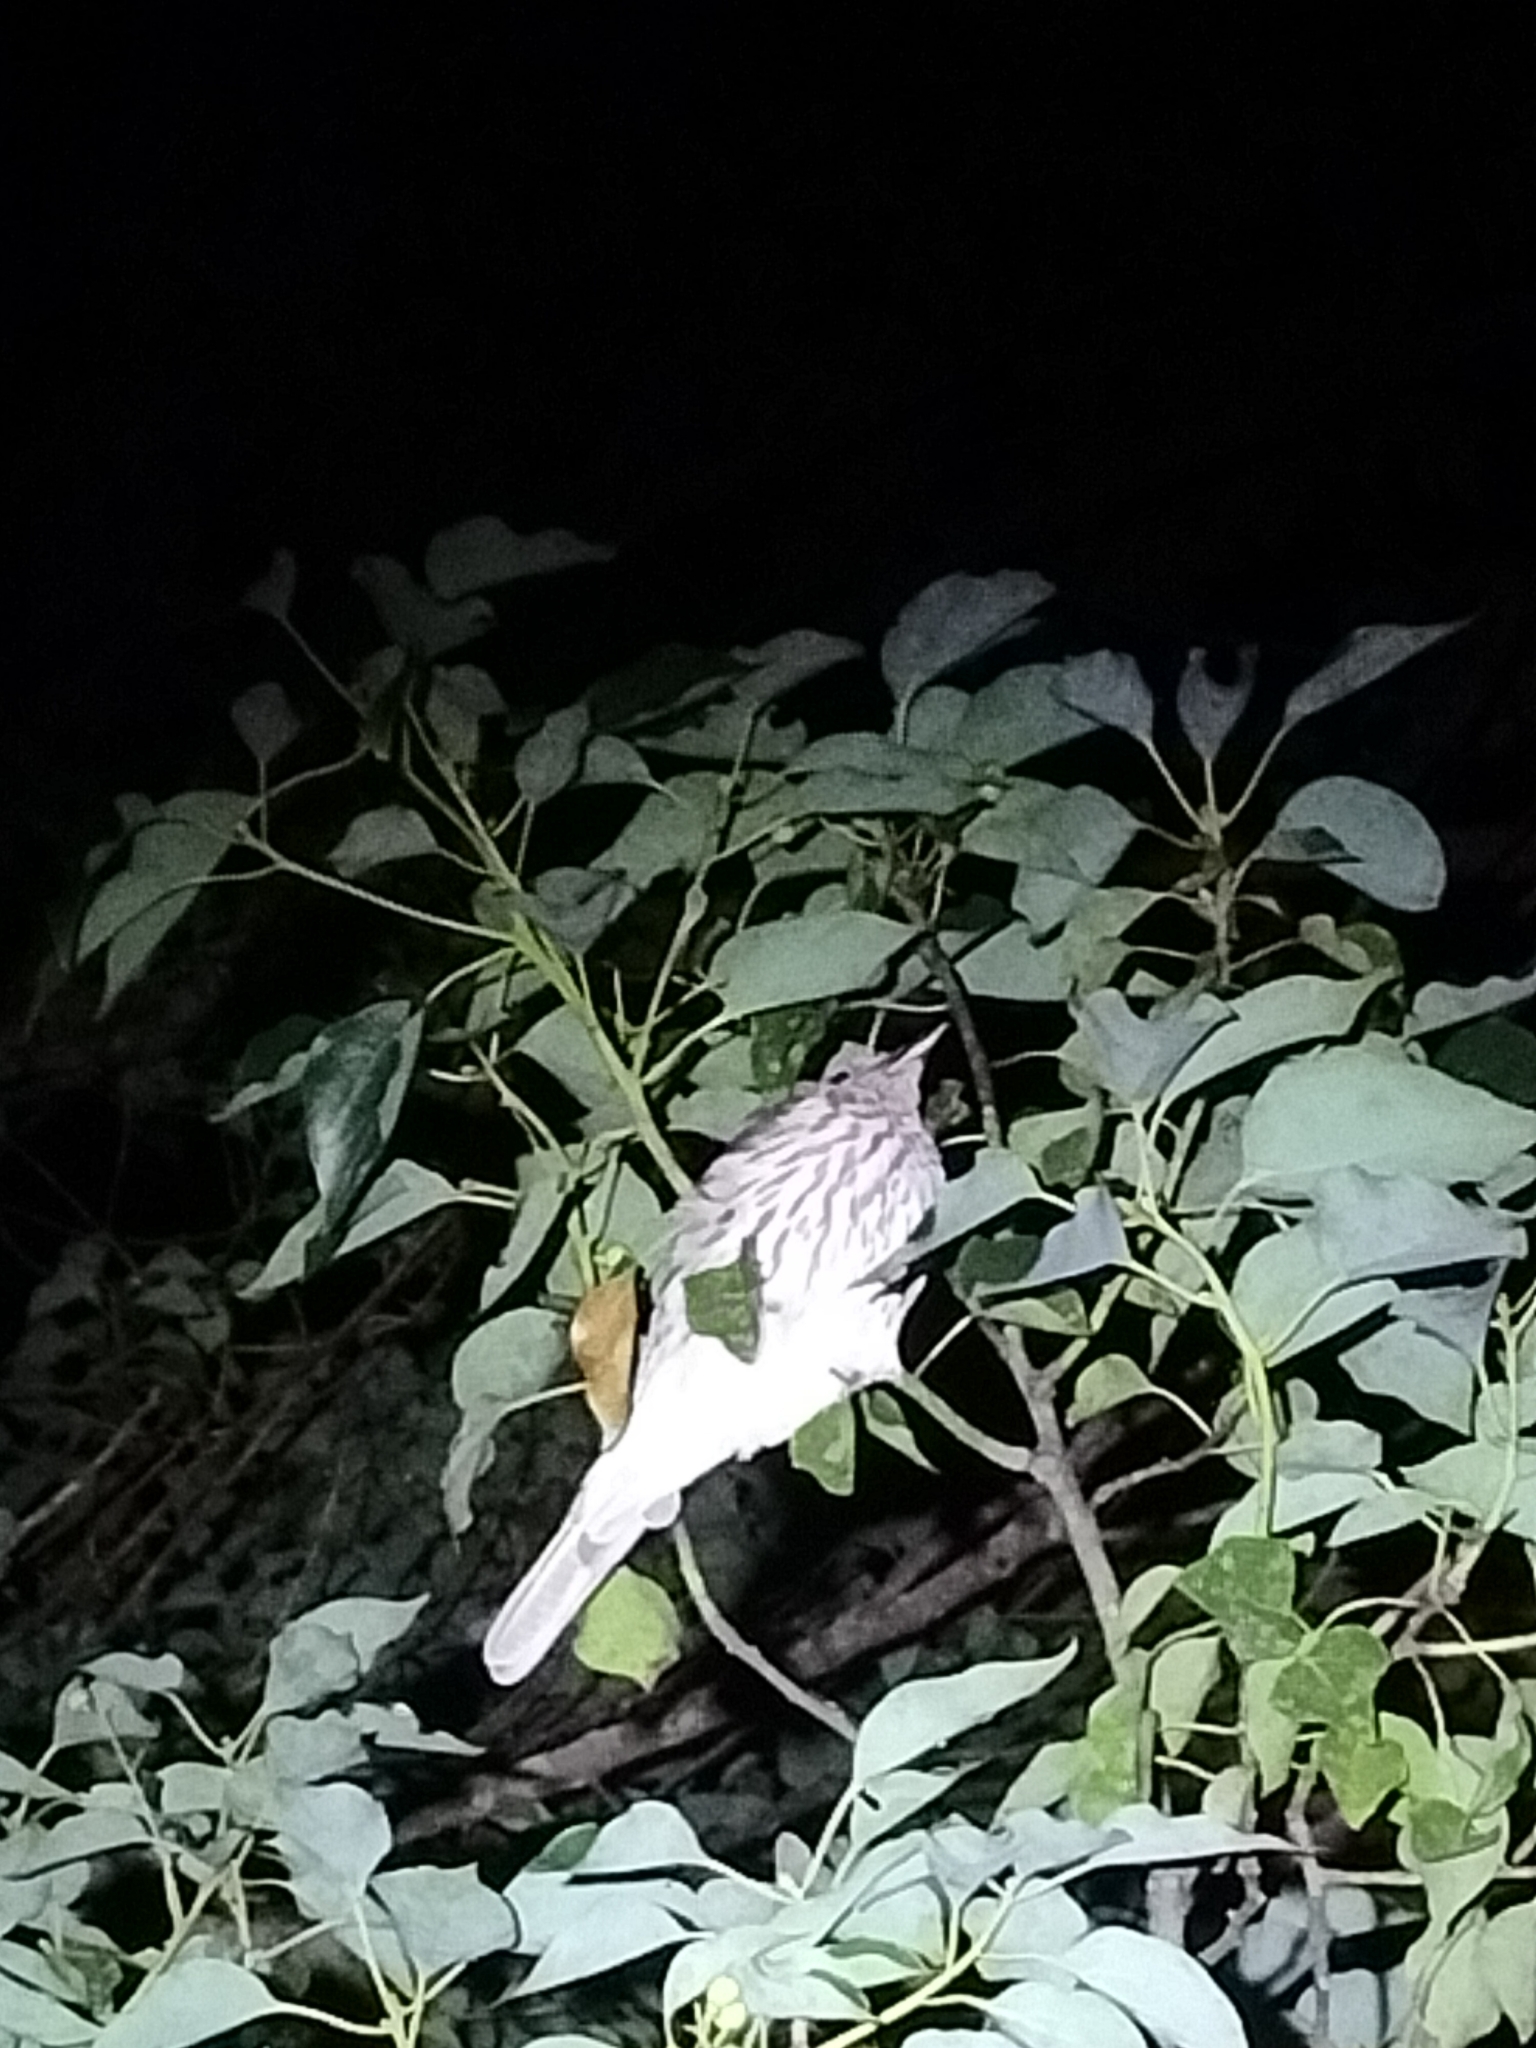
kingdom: Animalia
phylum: Chordata
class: Aves
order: Passeriformes
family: Oriolidae
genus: Sphecotheres
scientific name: Sphecotheres vieilloti
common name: Australasian figbird
